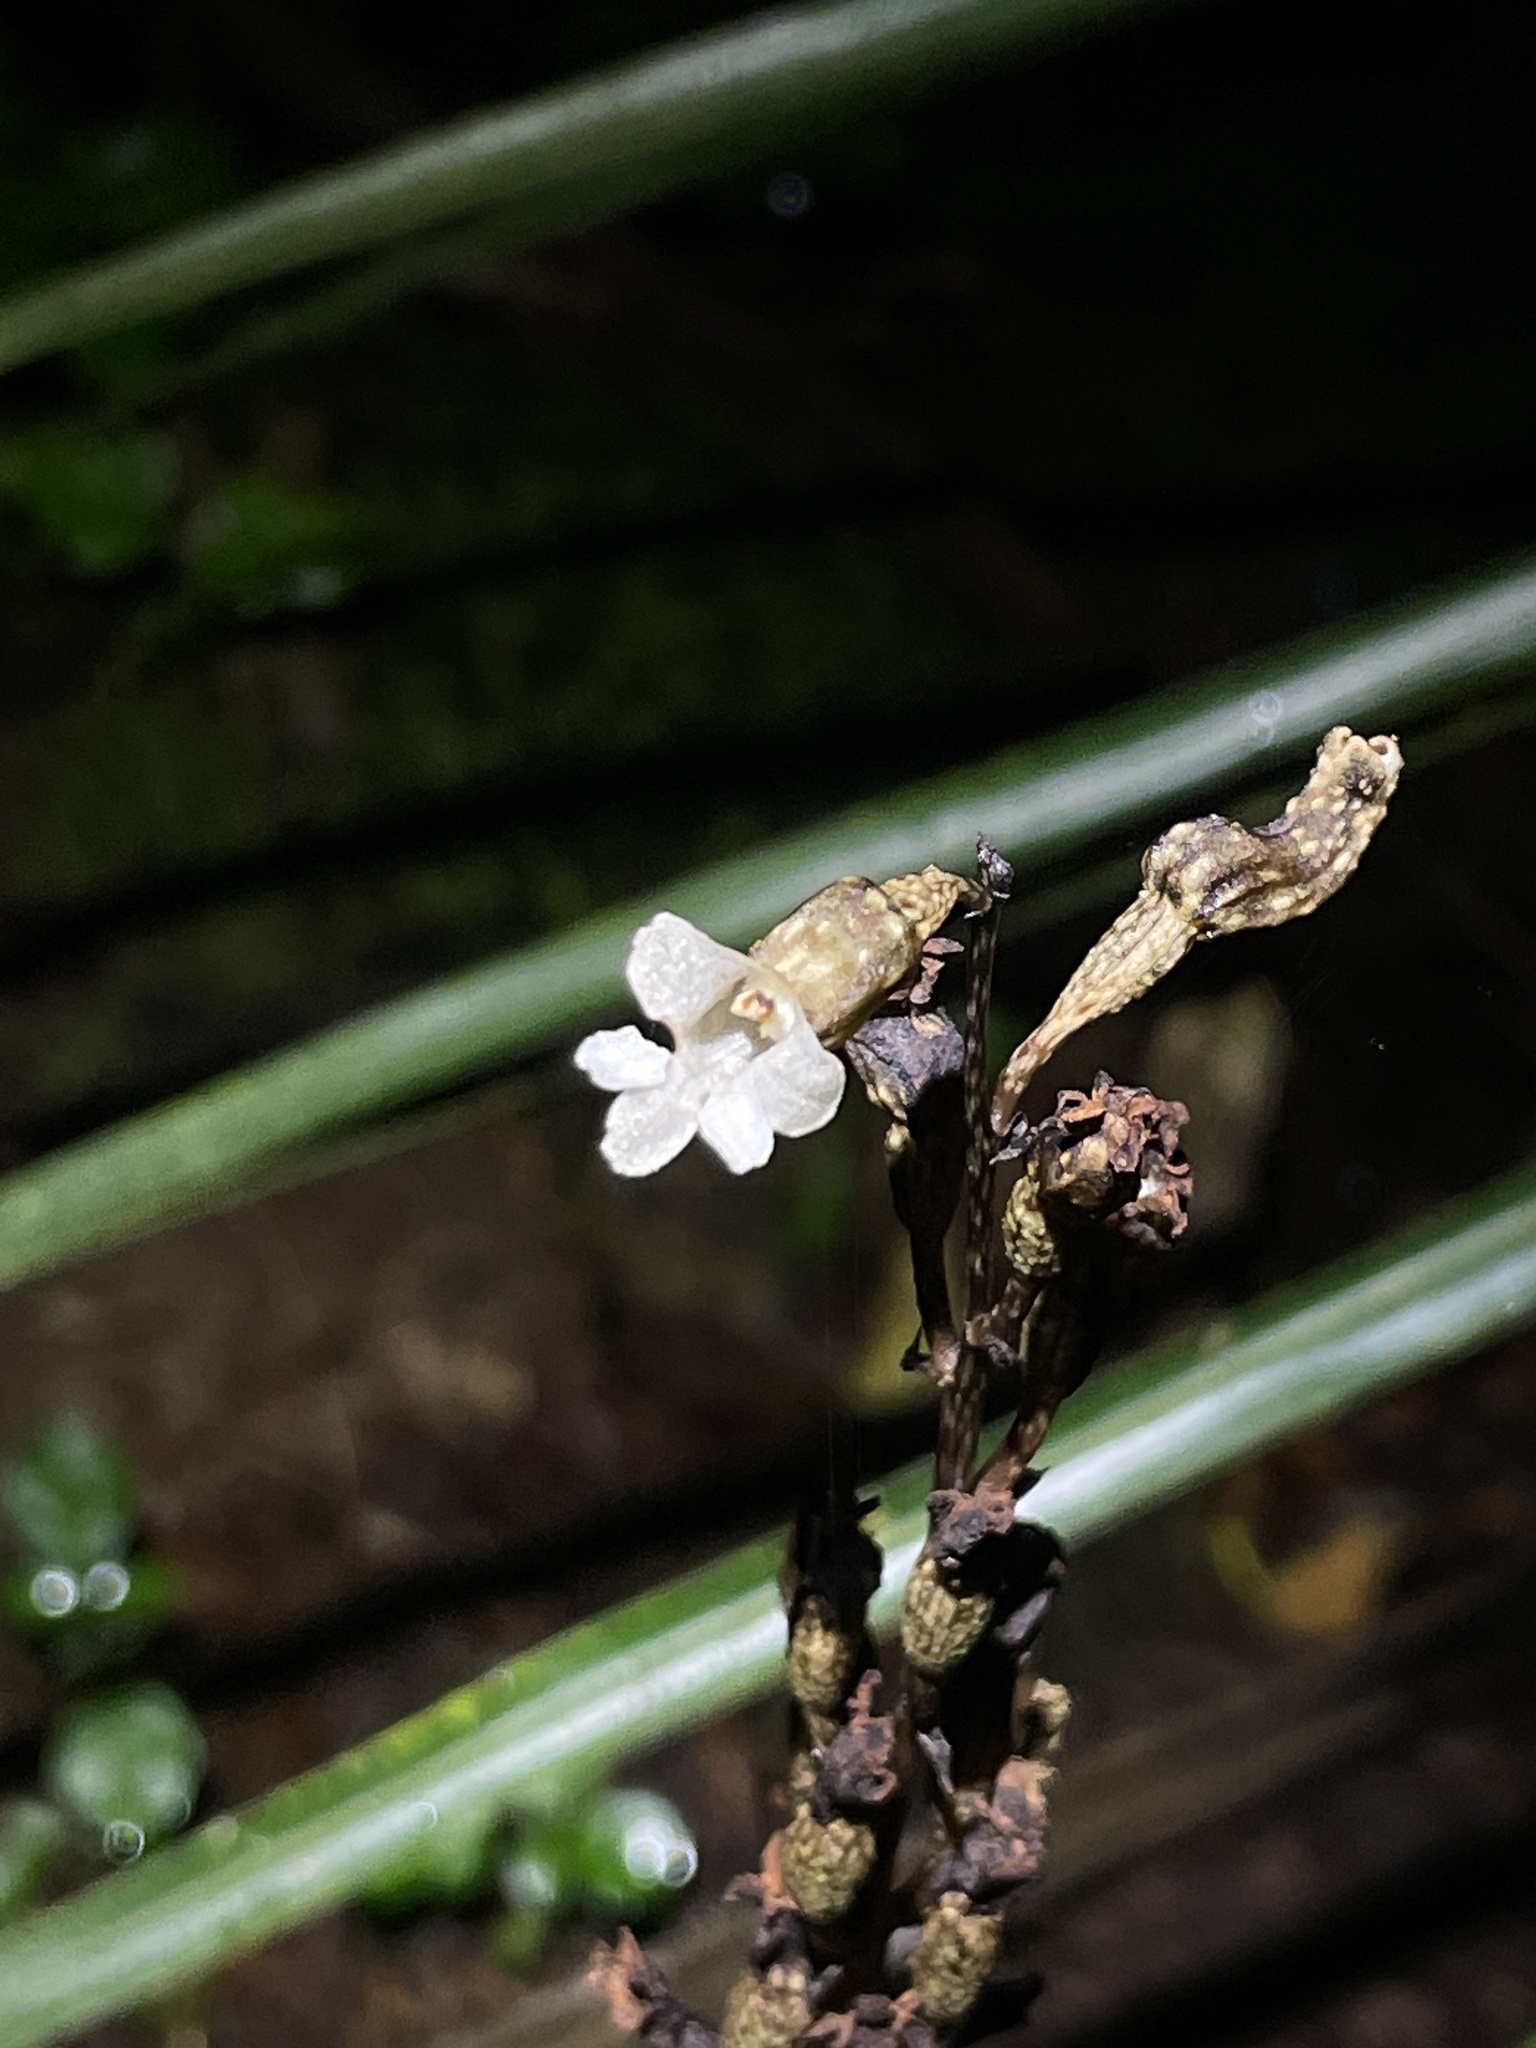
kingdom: Plantae
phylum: Tracheophyta
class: Liliopsida
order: Asparagales
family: Orchidaceae
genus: Gastrodia
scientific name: Gastrodia cunninghamii
